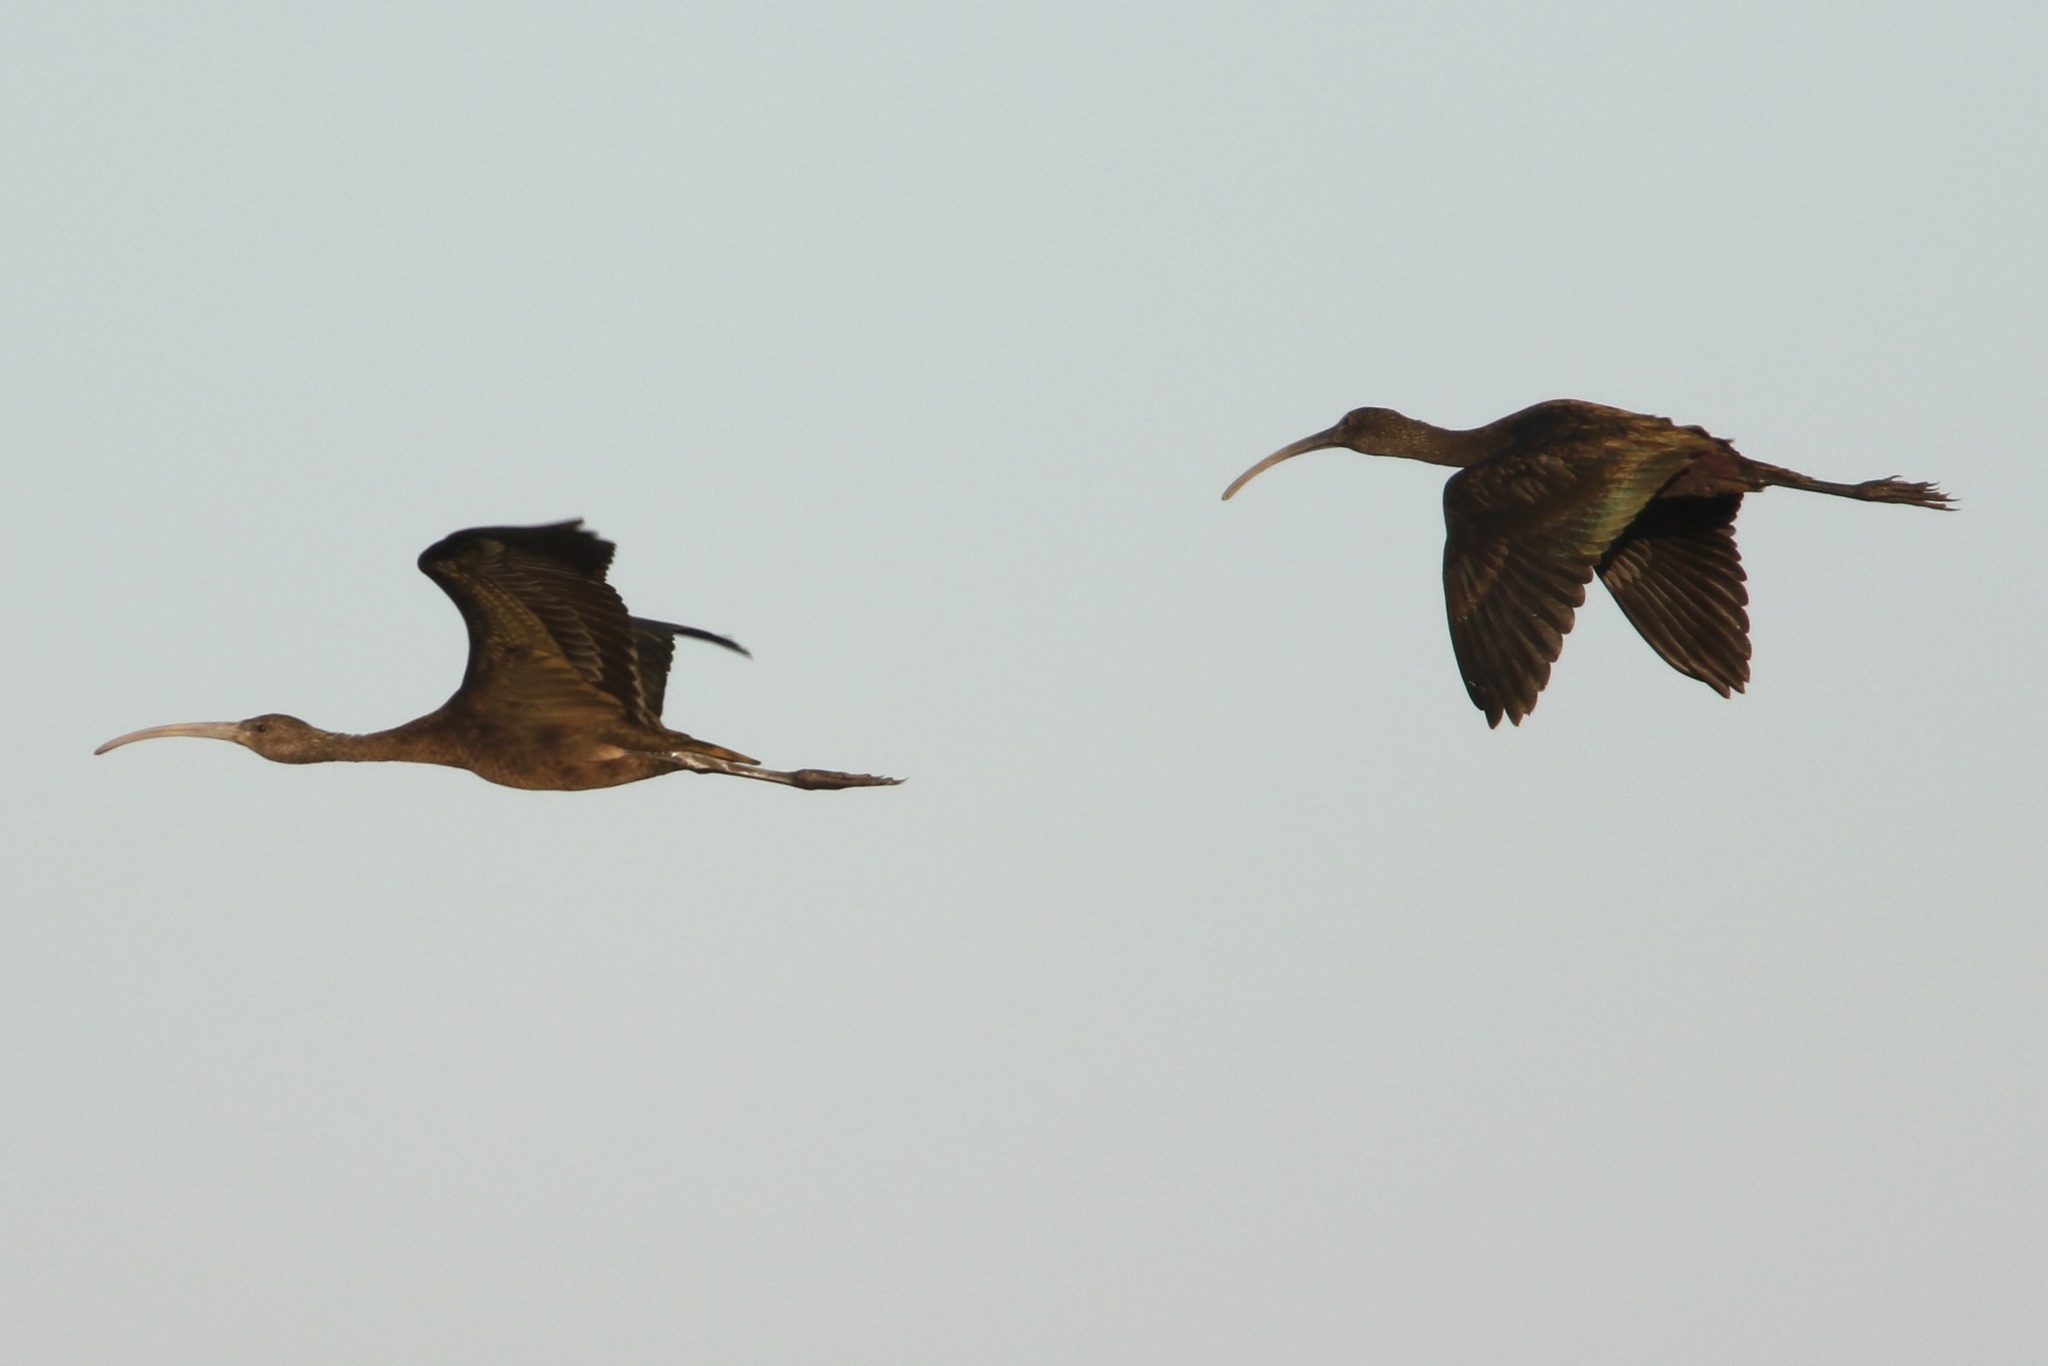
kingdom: Animalia
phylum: Chordata
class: Aves
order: Pelecaniformes
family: Threskiornithidae
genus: Plegadis
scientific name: Plegadis chihi
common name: White-faced ibis
